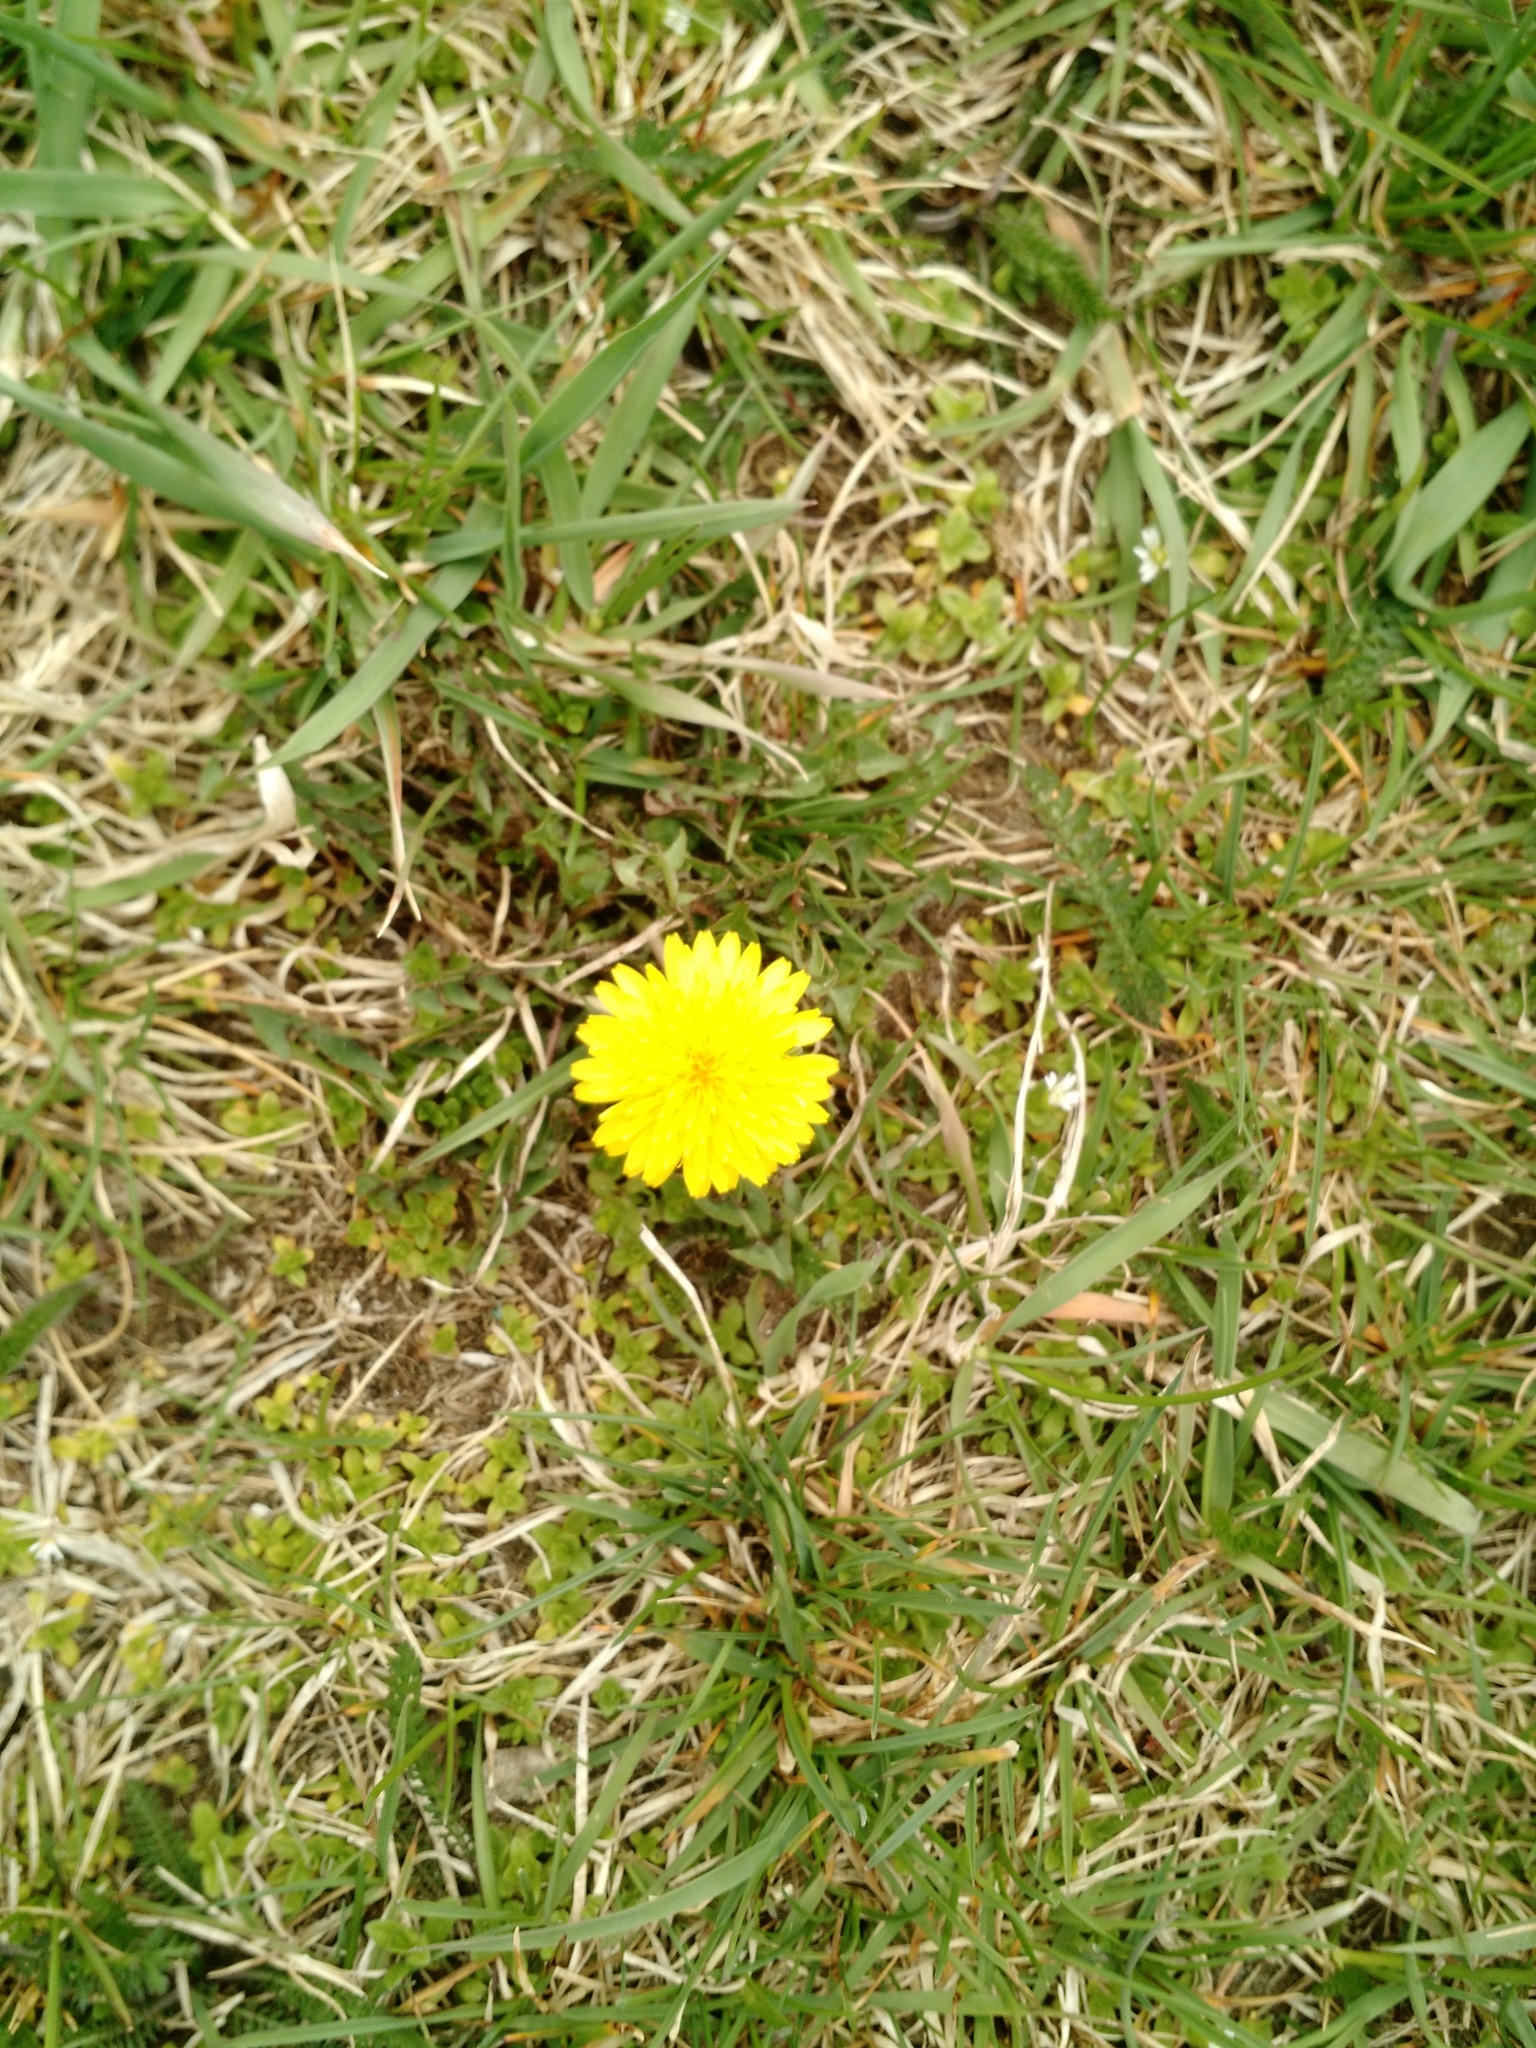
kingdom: Plantae
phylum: Tracheophyta
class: Magnoliopsida
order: Asterales
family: Asteraceae
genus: Taraxacum
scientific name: Taraxacum officinale
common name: Common dandelion
